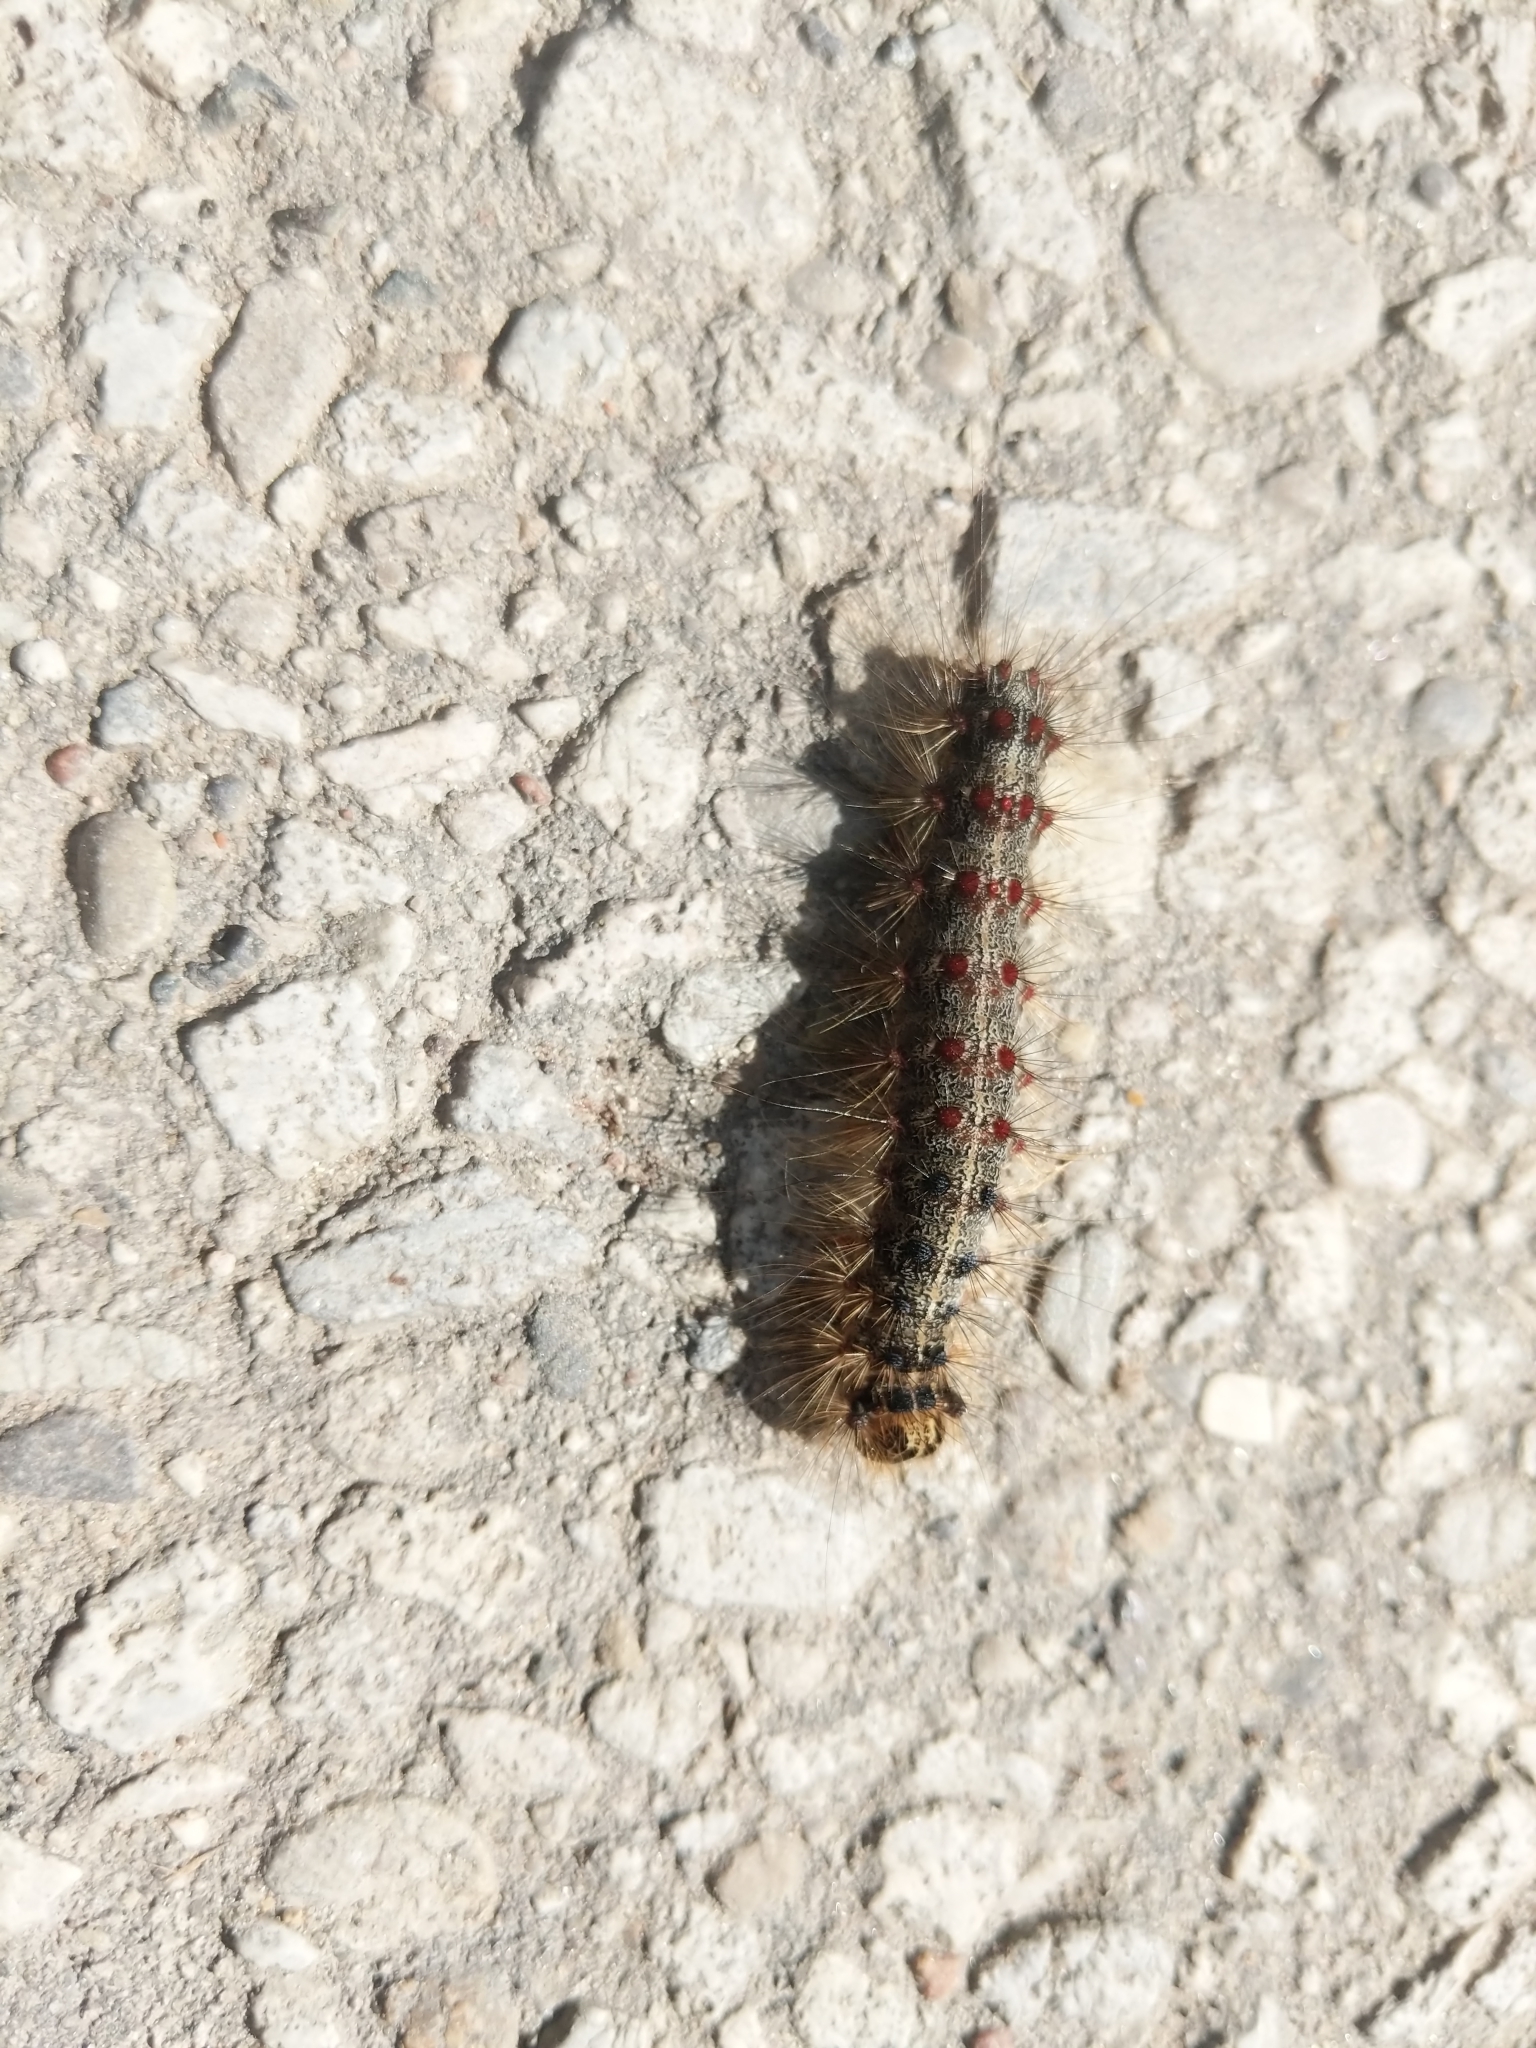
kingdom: Animalia
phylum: Arthropoda
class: Insecta
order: Lepidoptera
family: Erebidae
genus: Lymantria
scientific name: Lymantria dispar
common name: Gypsy moth
